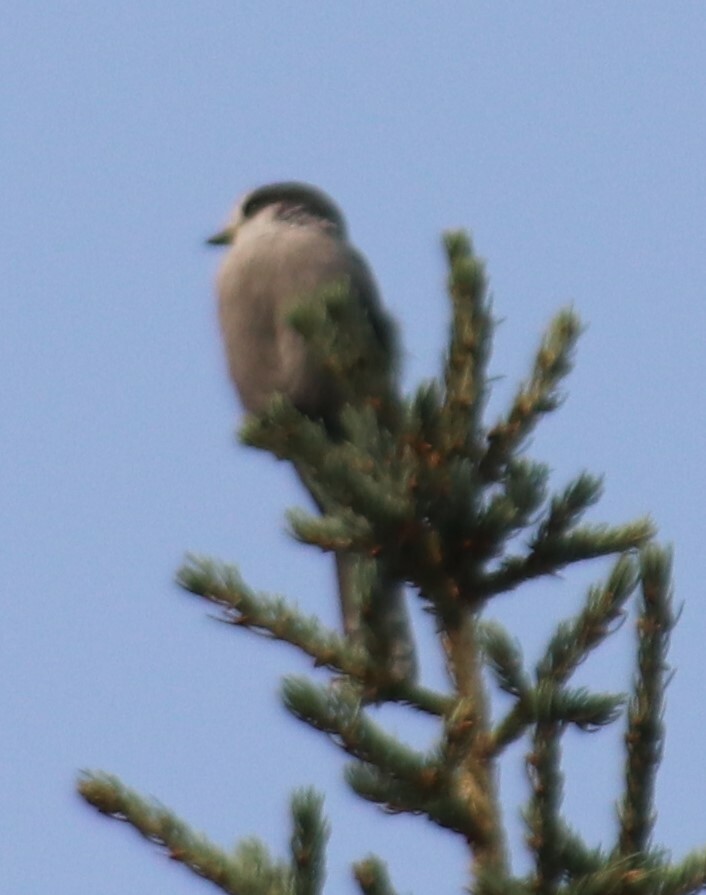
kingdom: Animalia
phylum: Chordata
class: Aves
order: Passeriformes
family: Corvidae
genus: Perisoreus
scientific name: Perisoreus canadensis
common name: Gray jay
